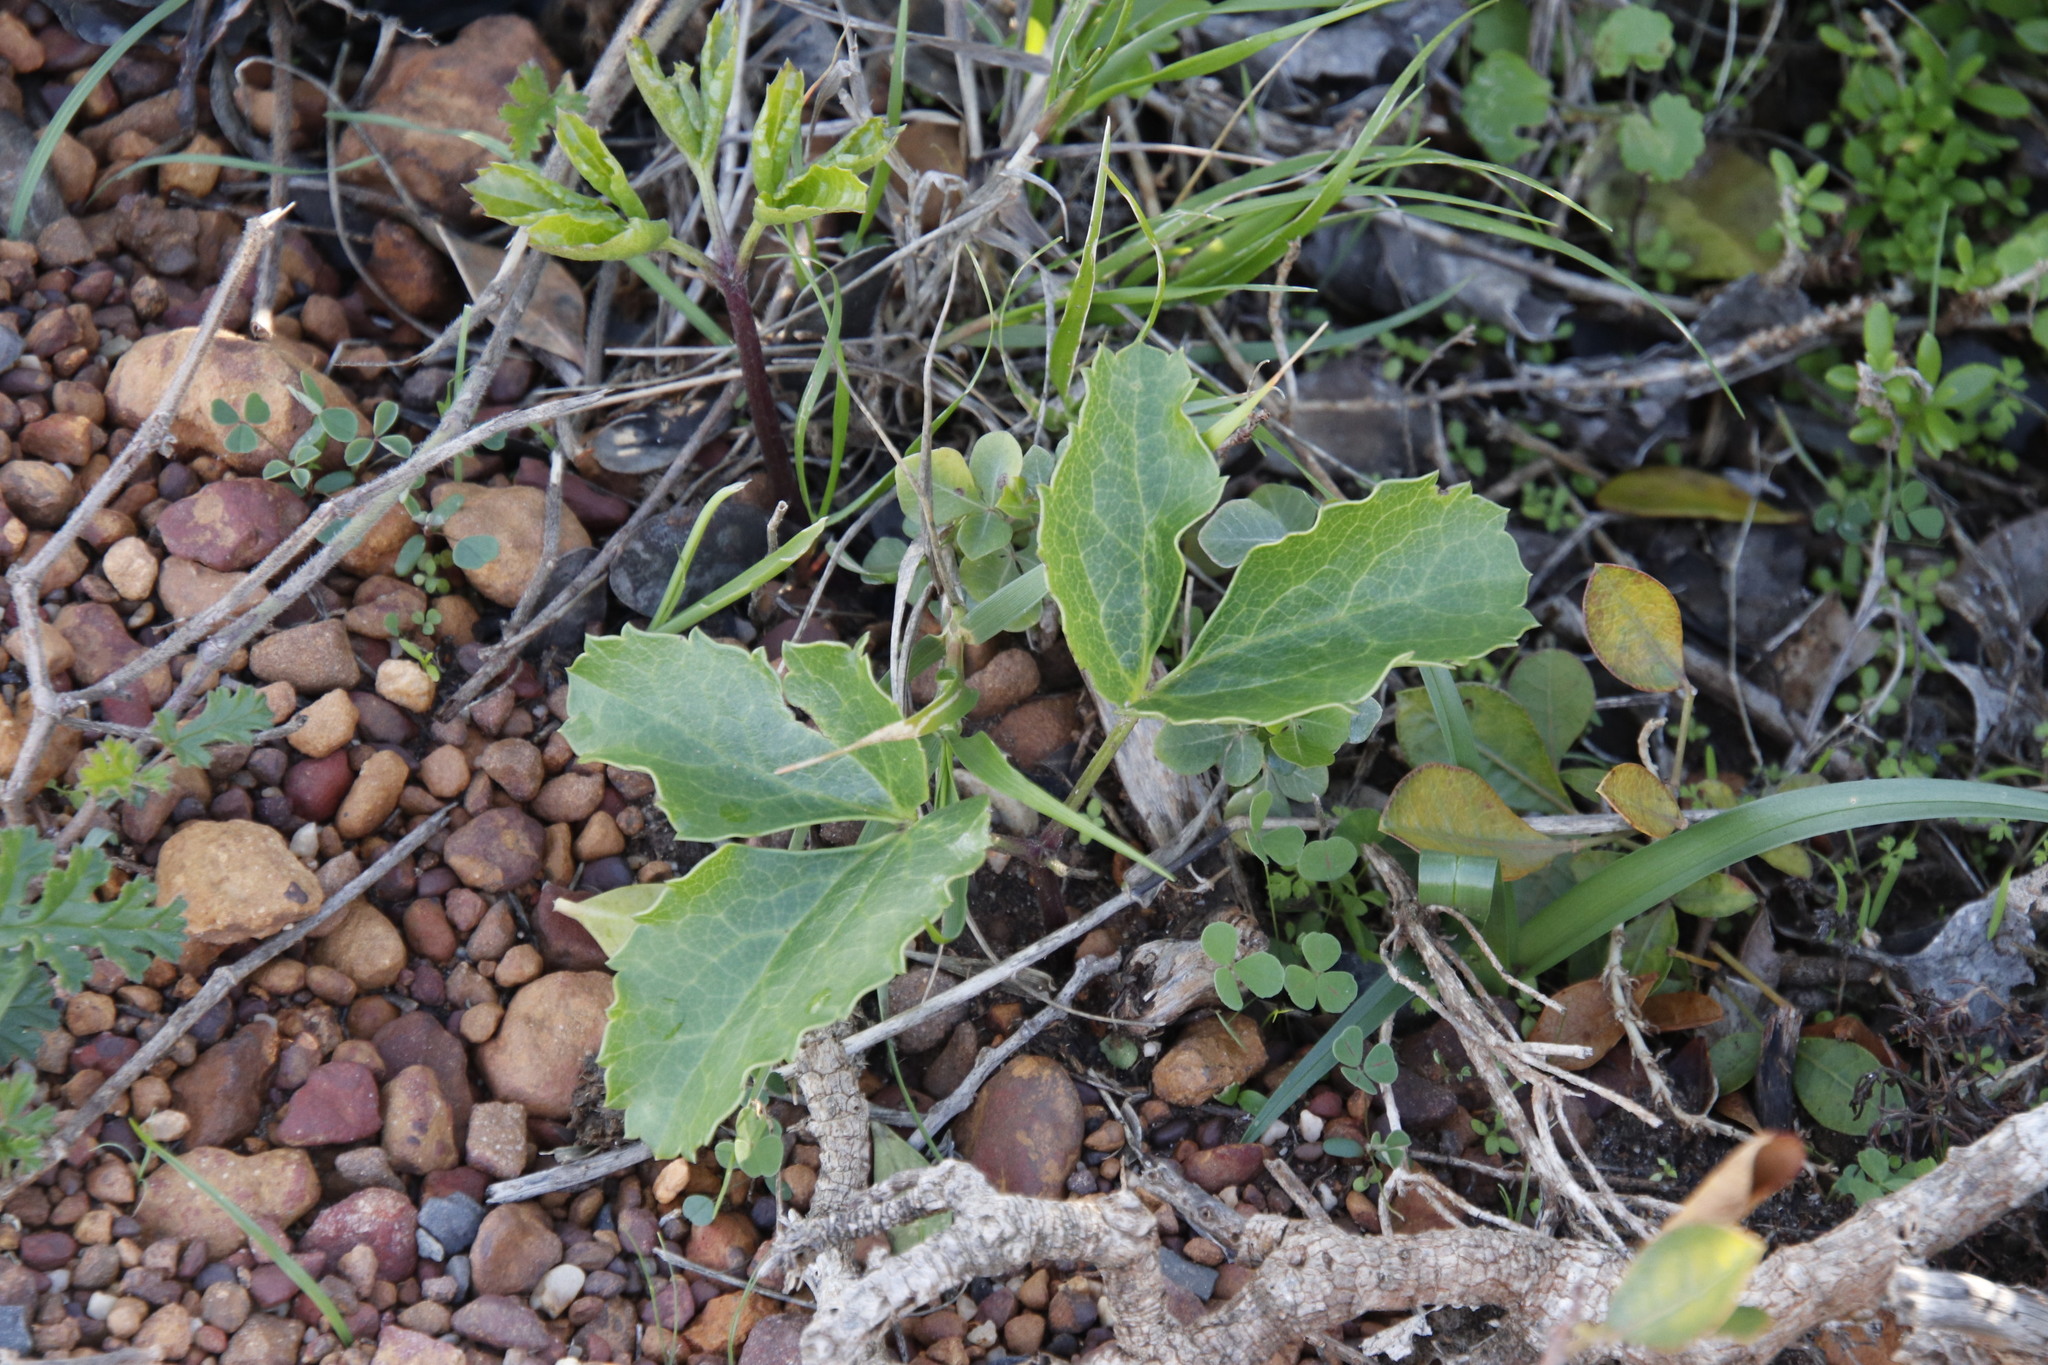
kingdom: Plantae
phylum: Tracheophyta
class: Magnoliopsida
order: Ranunculales
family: Ranunculaceae
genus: Knowltonia
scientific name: Knowltonia vesicatoria
